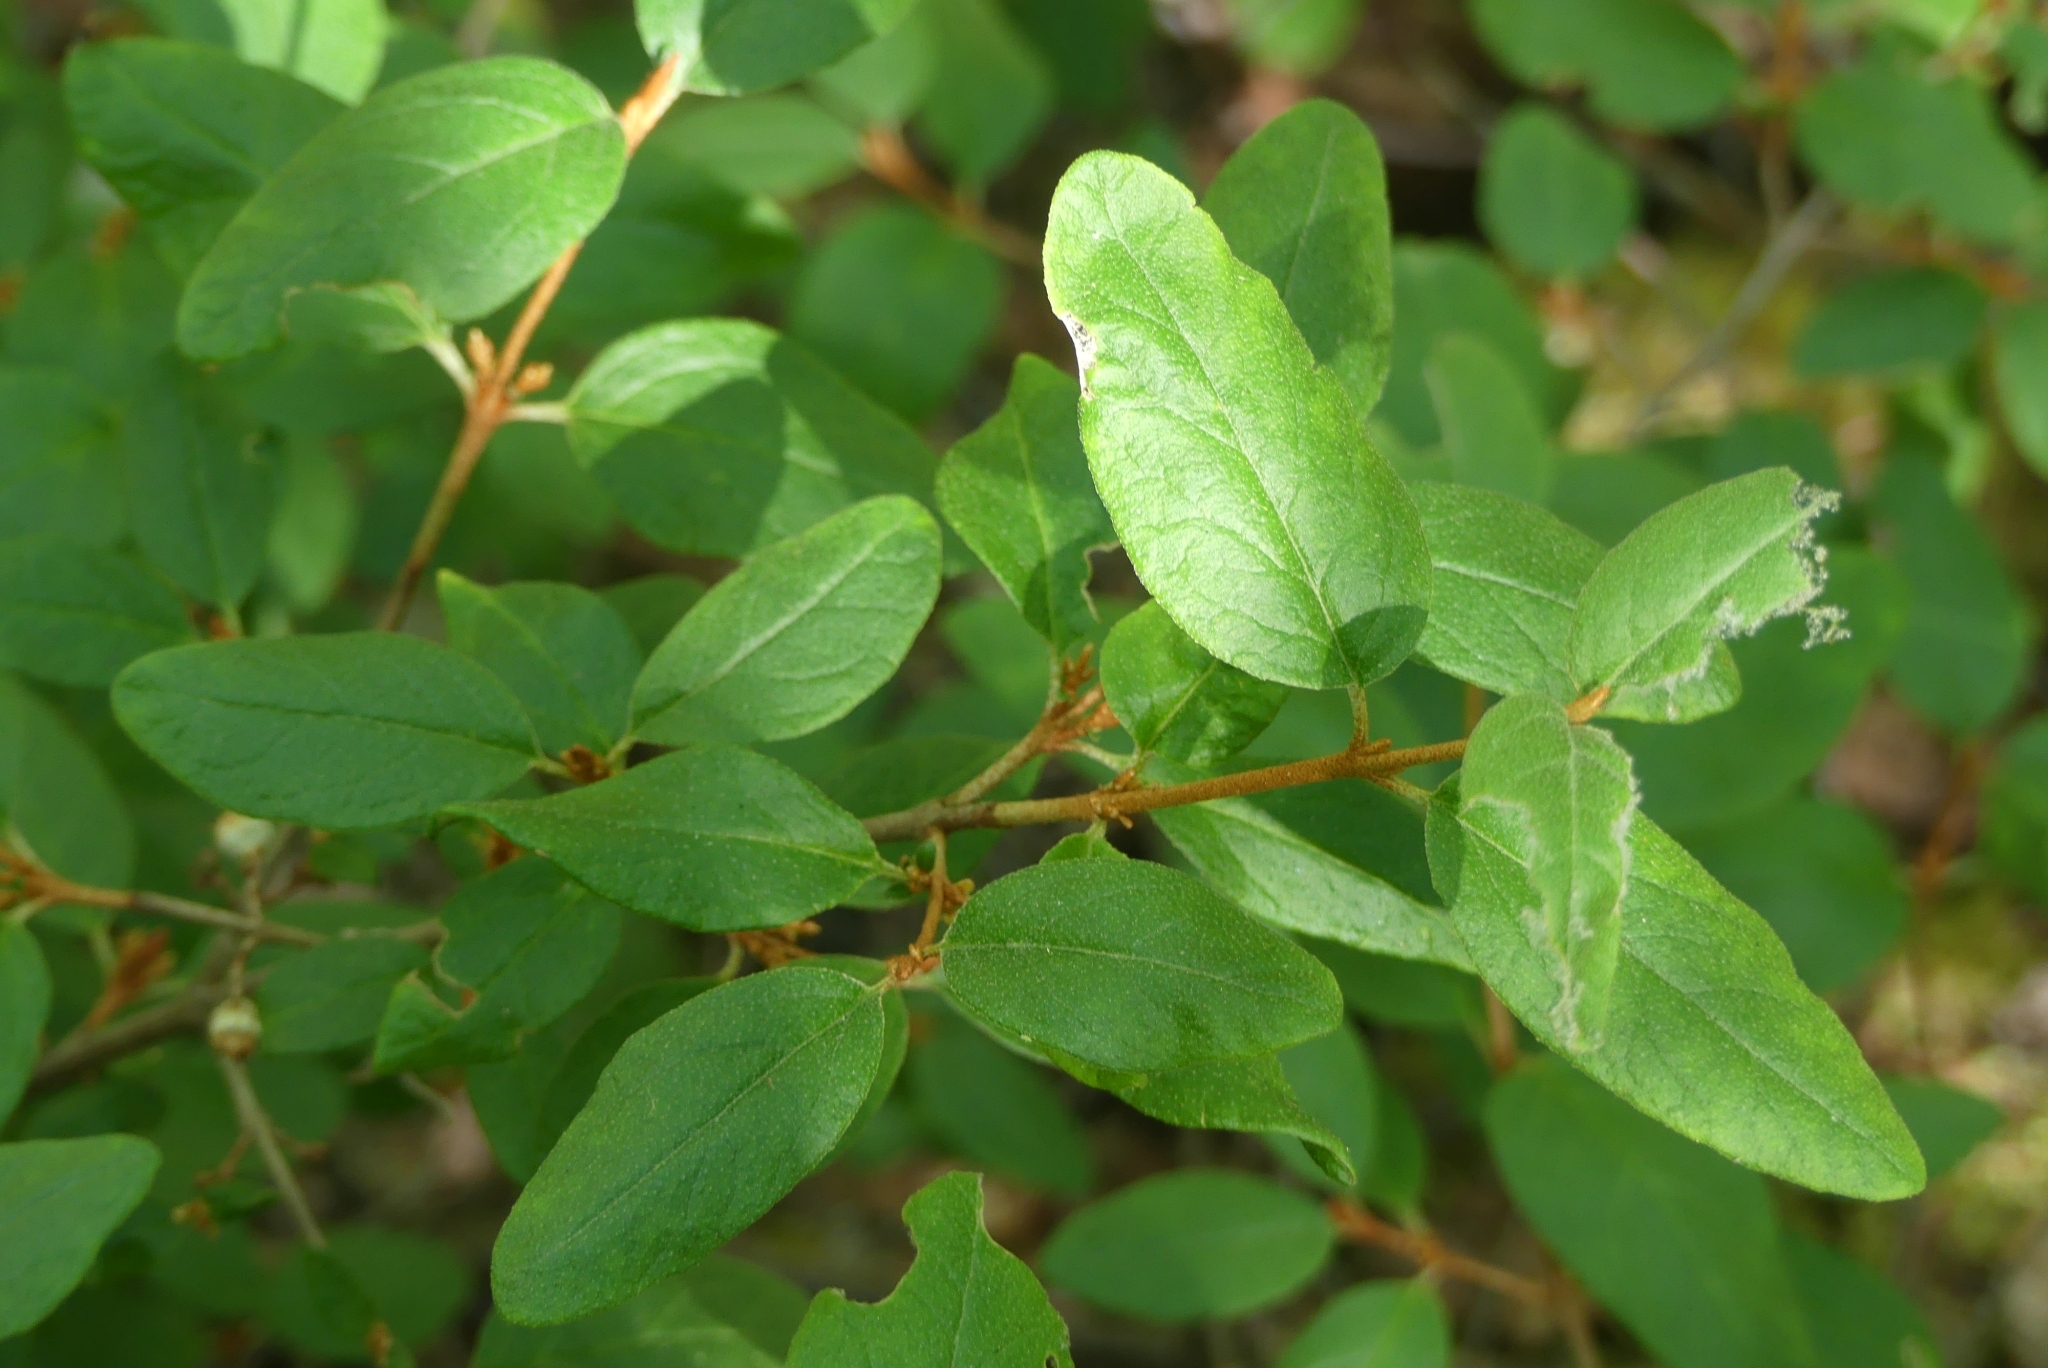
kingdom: Plantae
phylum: Tracheophyta
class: Magnoliopsida
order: Rosales
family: Elaeagnaceae
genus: Shepherdia
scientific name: Shepherdia canadensis
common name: Soapberry
